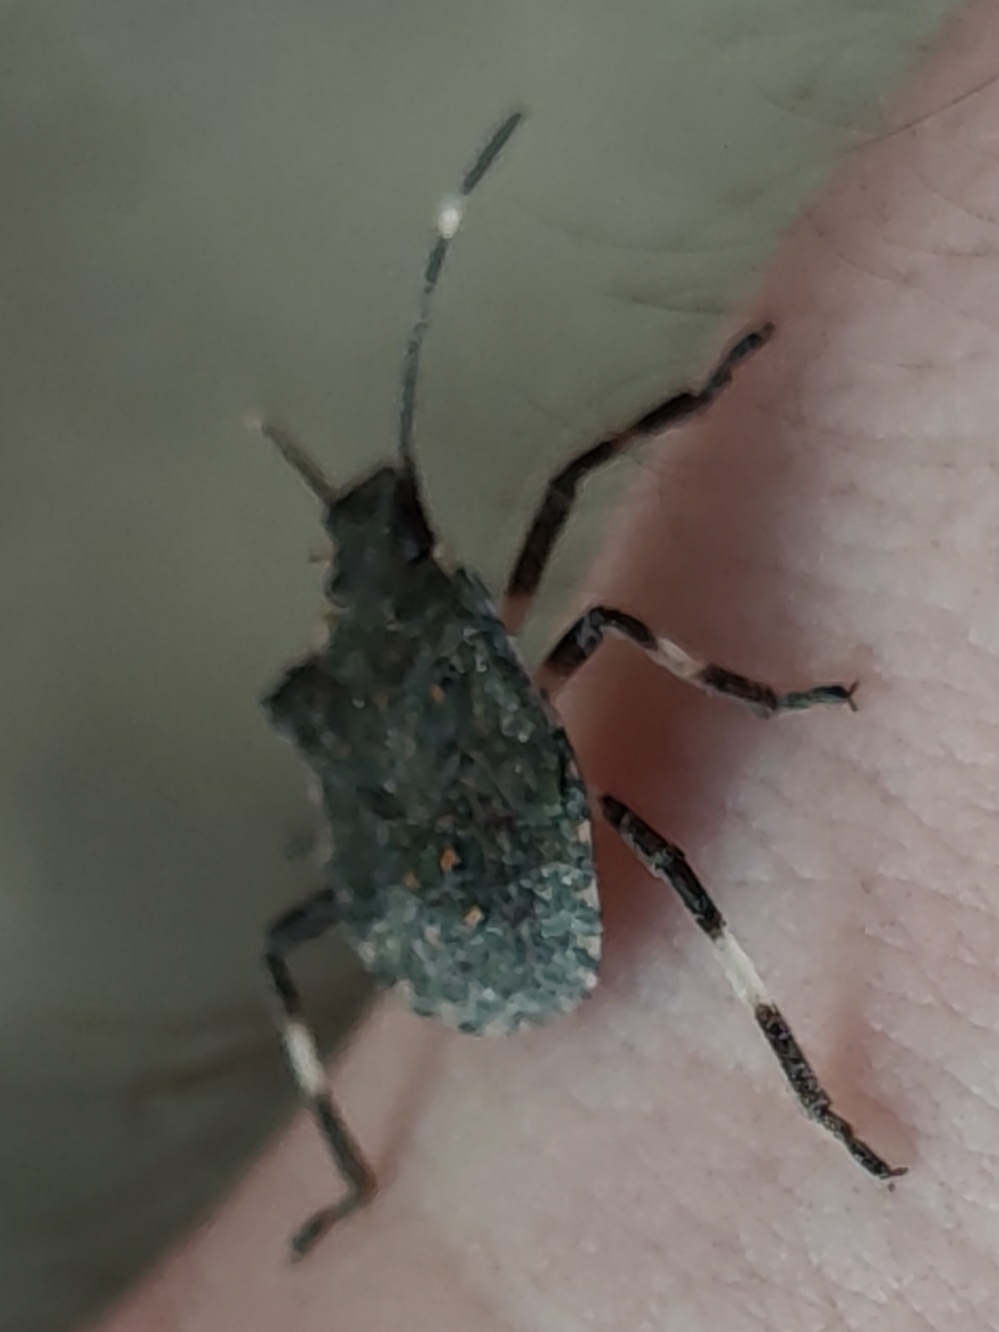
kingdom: Animalia
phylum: Arthropoda
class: Insecta
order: Hemiptera
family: Pentatomidae
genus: Halyomorpha
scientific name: Halyomorpha halys
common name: Brown marmorated stink bug
